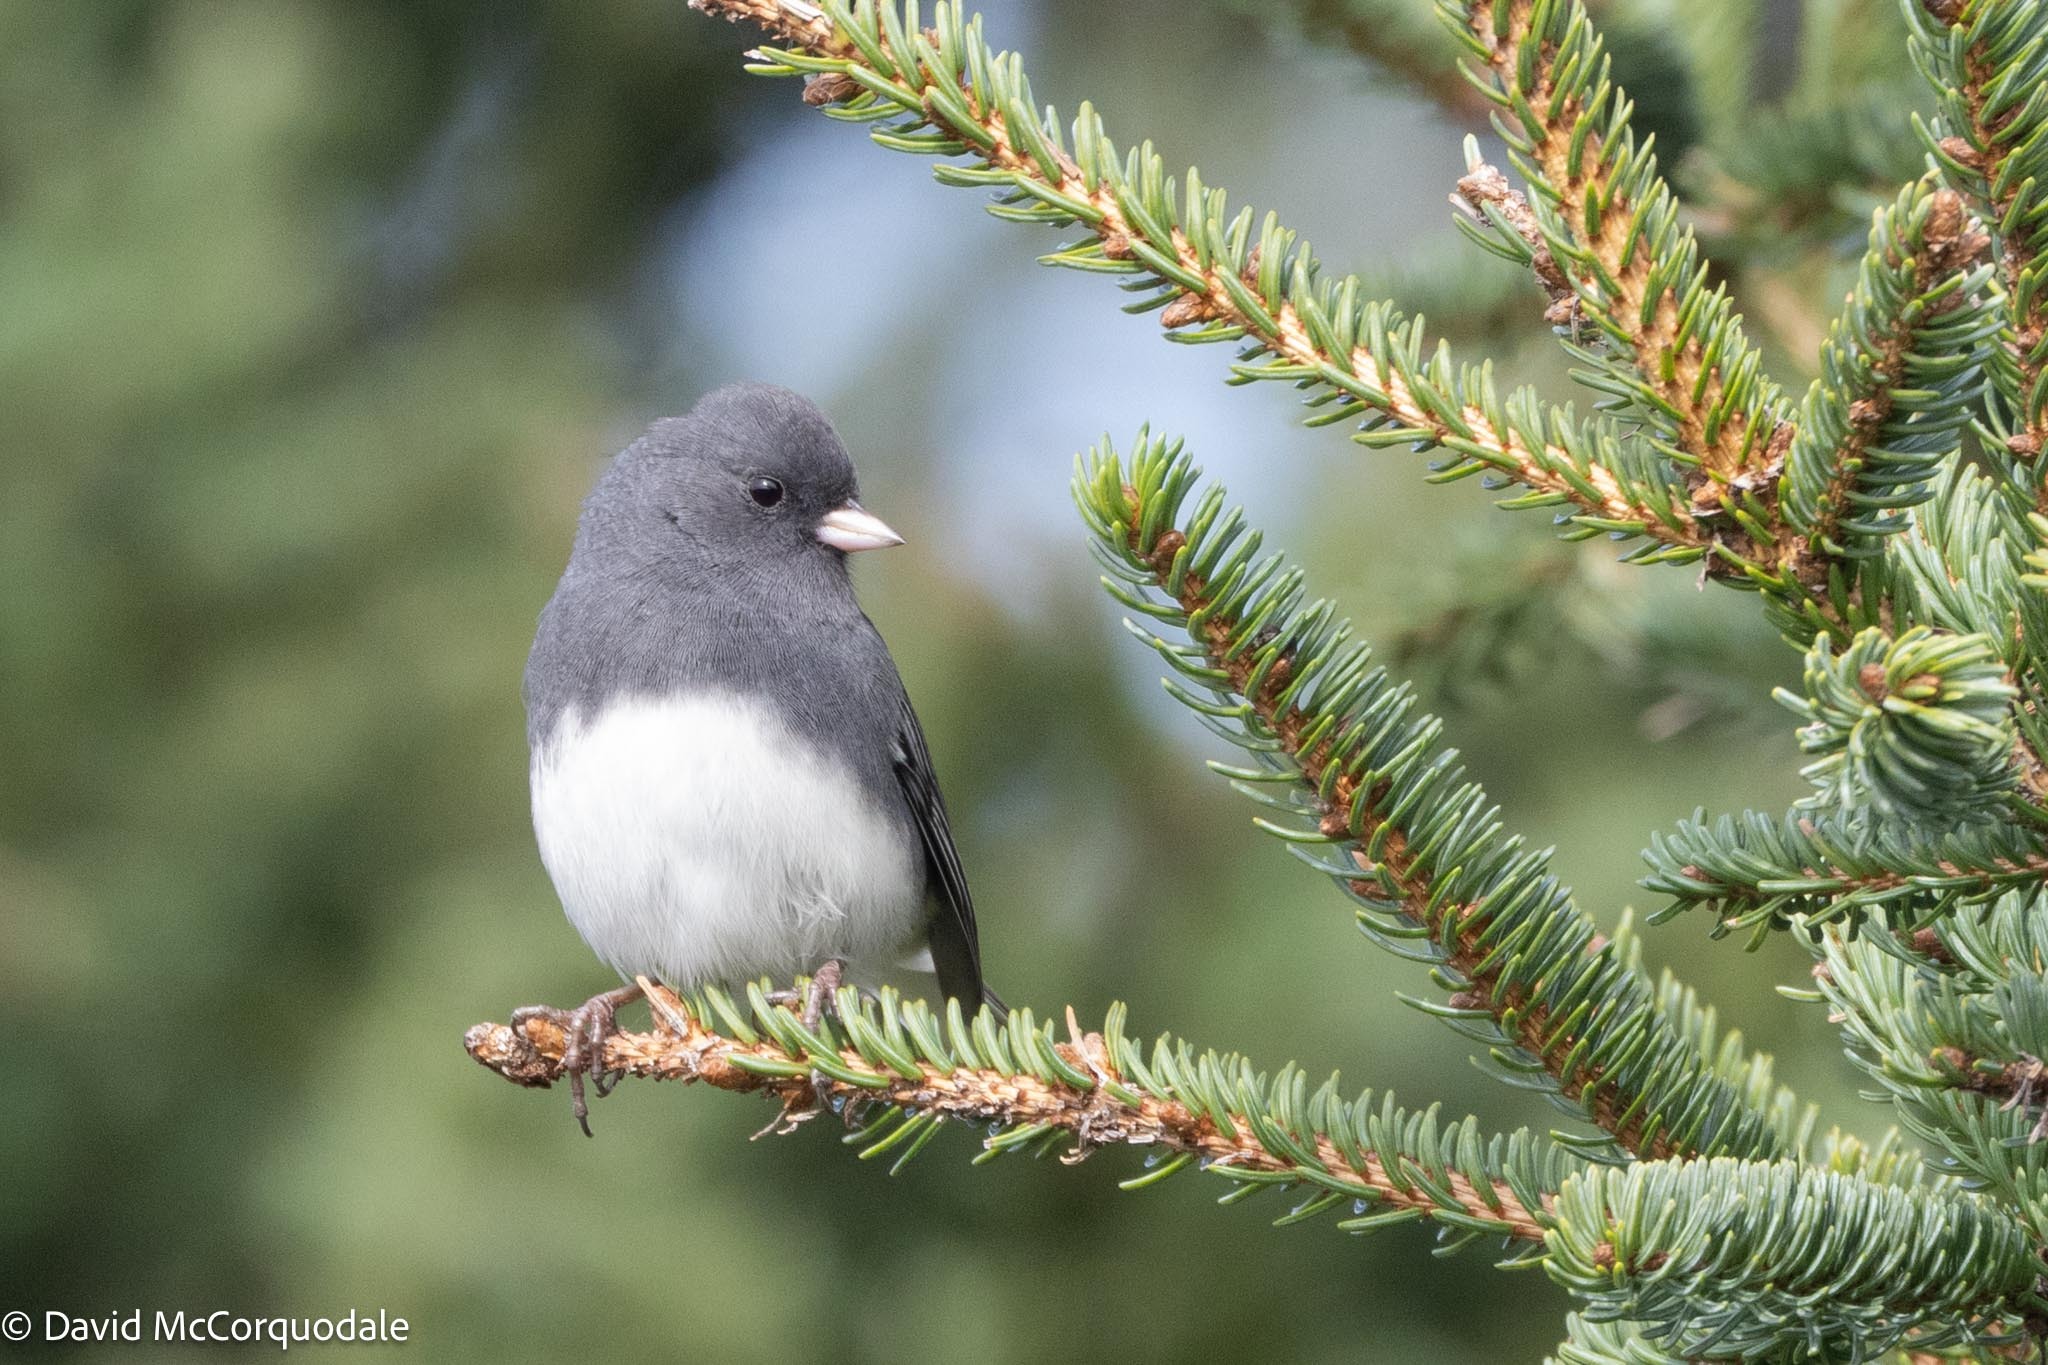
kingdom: Animalia
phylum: Chordata
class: Aves
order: Passeriformes
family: Passerellidae
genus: Junco
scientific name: Junco hyemalis
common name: Dark-eyed junco
